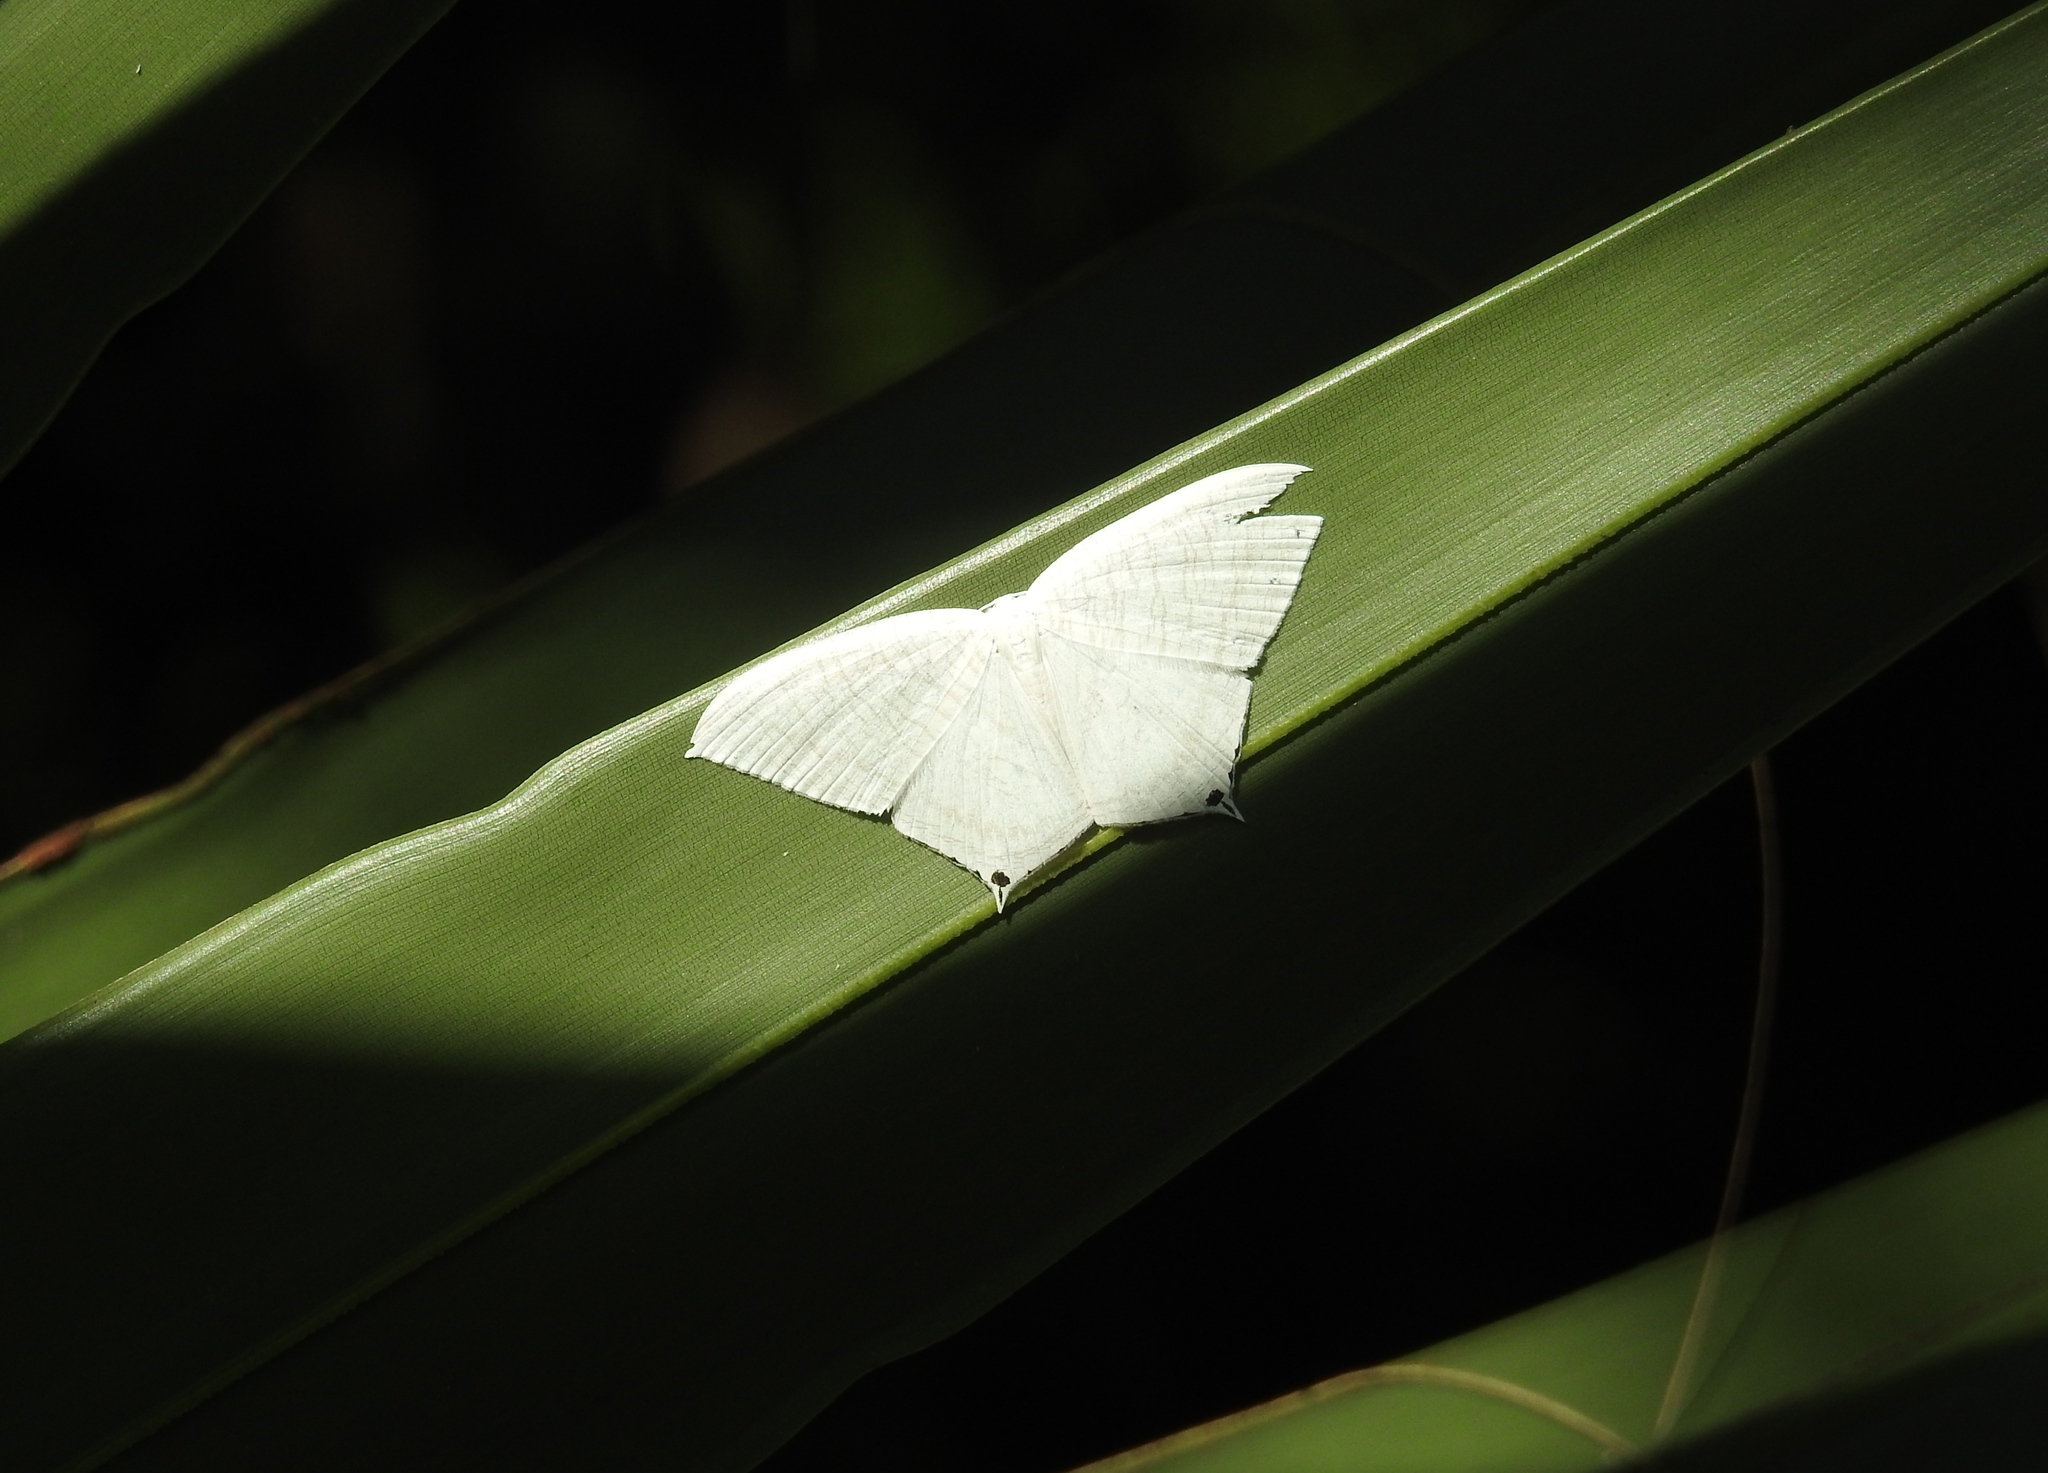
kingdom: Animalia
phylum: Arthropoda
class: Insecta
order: Lepidoptera
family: Uraniidae
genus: Micronia
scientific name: Micronia aculeata
